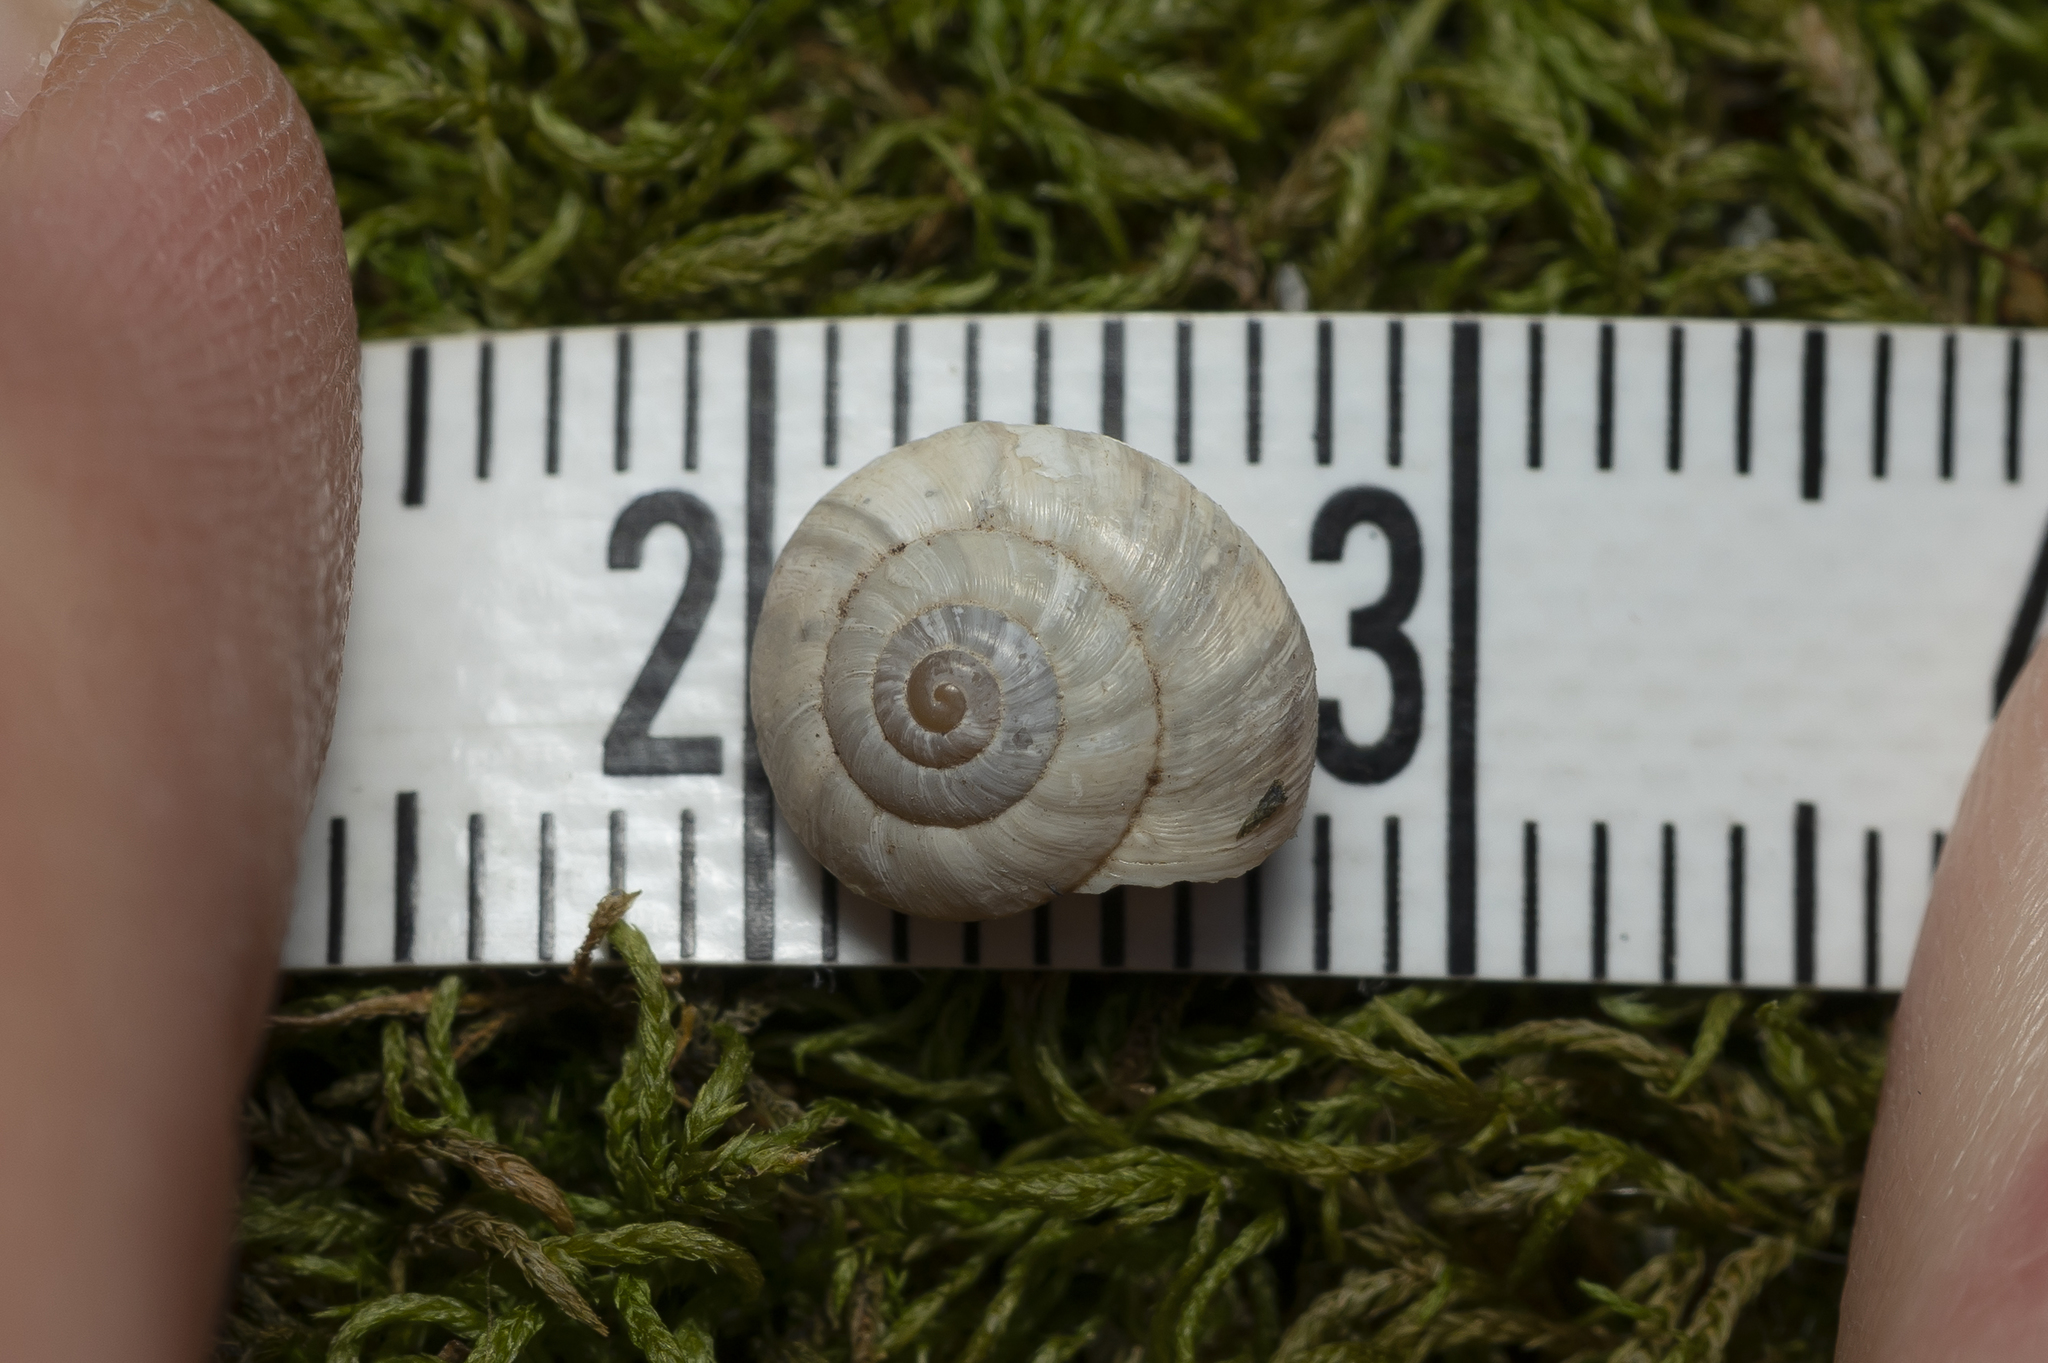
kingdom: Animalia
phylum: Mollusca
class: Gastropoda
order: Stylommatophora
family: Geomitridae
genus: Cernuella
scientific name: Cernuella virgata
